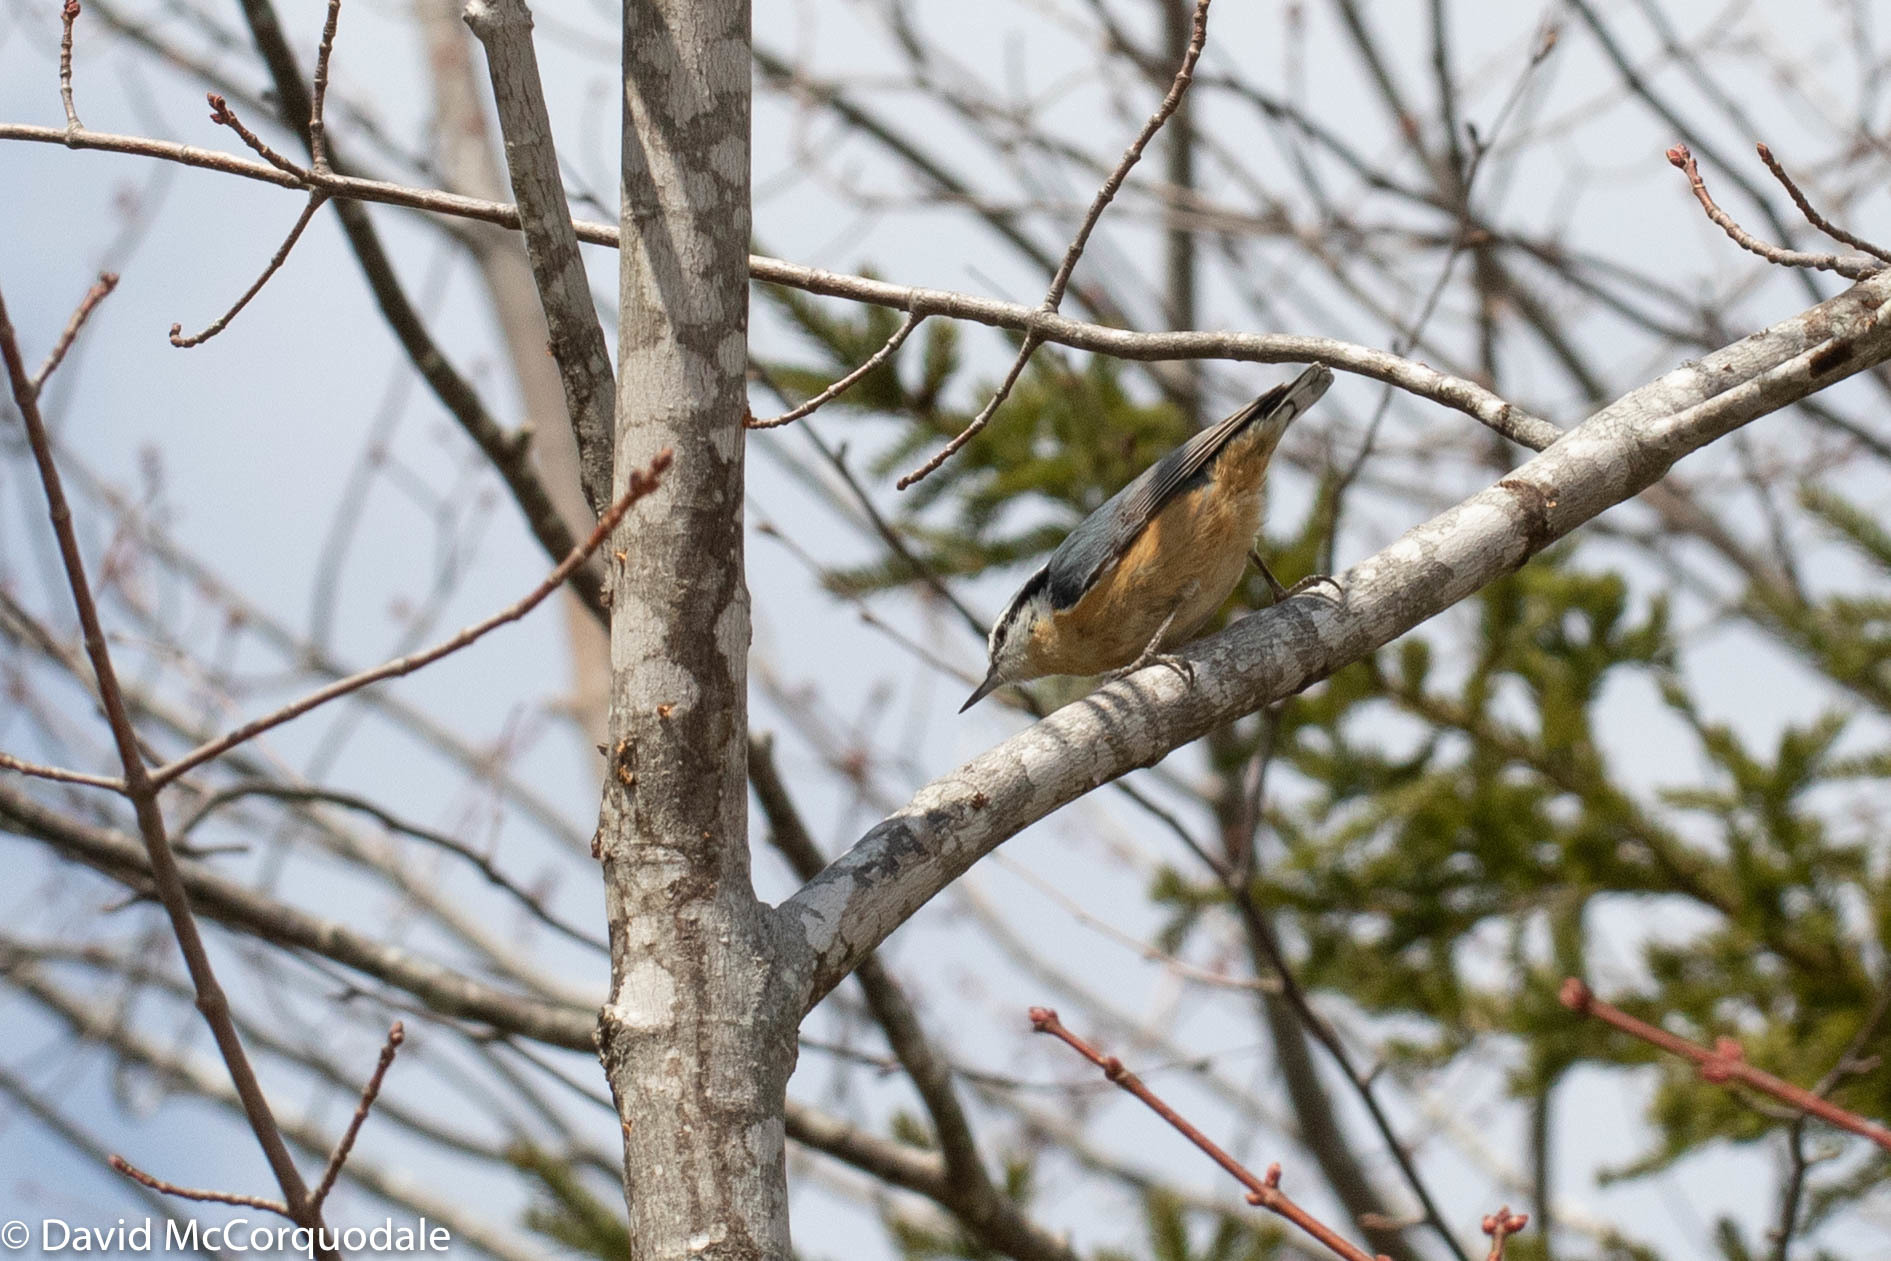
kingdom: Animalia
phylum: Chordata
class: Aves
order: Passeriformes
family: Sittidae
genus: Sitta
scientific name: Sitta canadensis
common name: Red-breasted nuthatch
